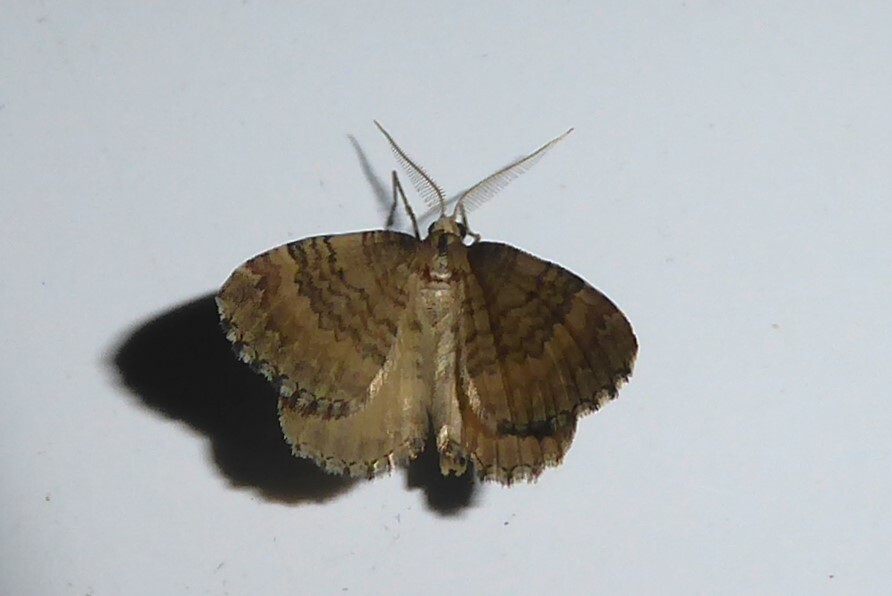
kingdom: Animalia
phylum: Arthropoda
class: Insecta
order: Lepidoptera
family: Geometridae
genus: Asaphodes
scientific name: Asaphodes aegrota
